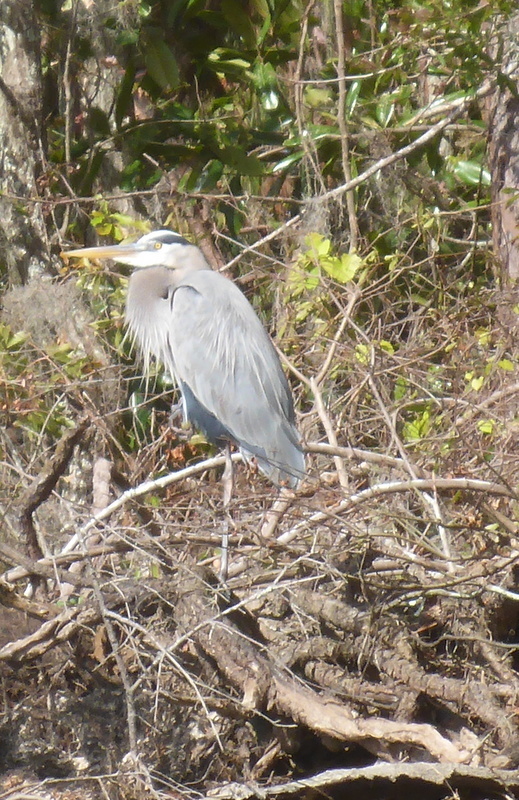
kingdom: Animalia
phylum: Chordata
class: Aves
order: Pelecaniformes
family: Ardeidae
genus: Ardea
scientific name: Ardea herodias
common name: Great blue heron
